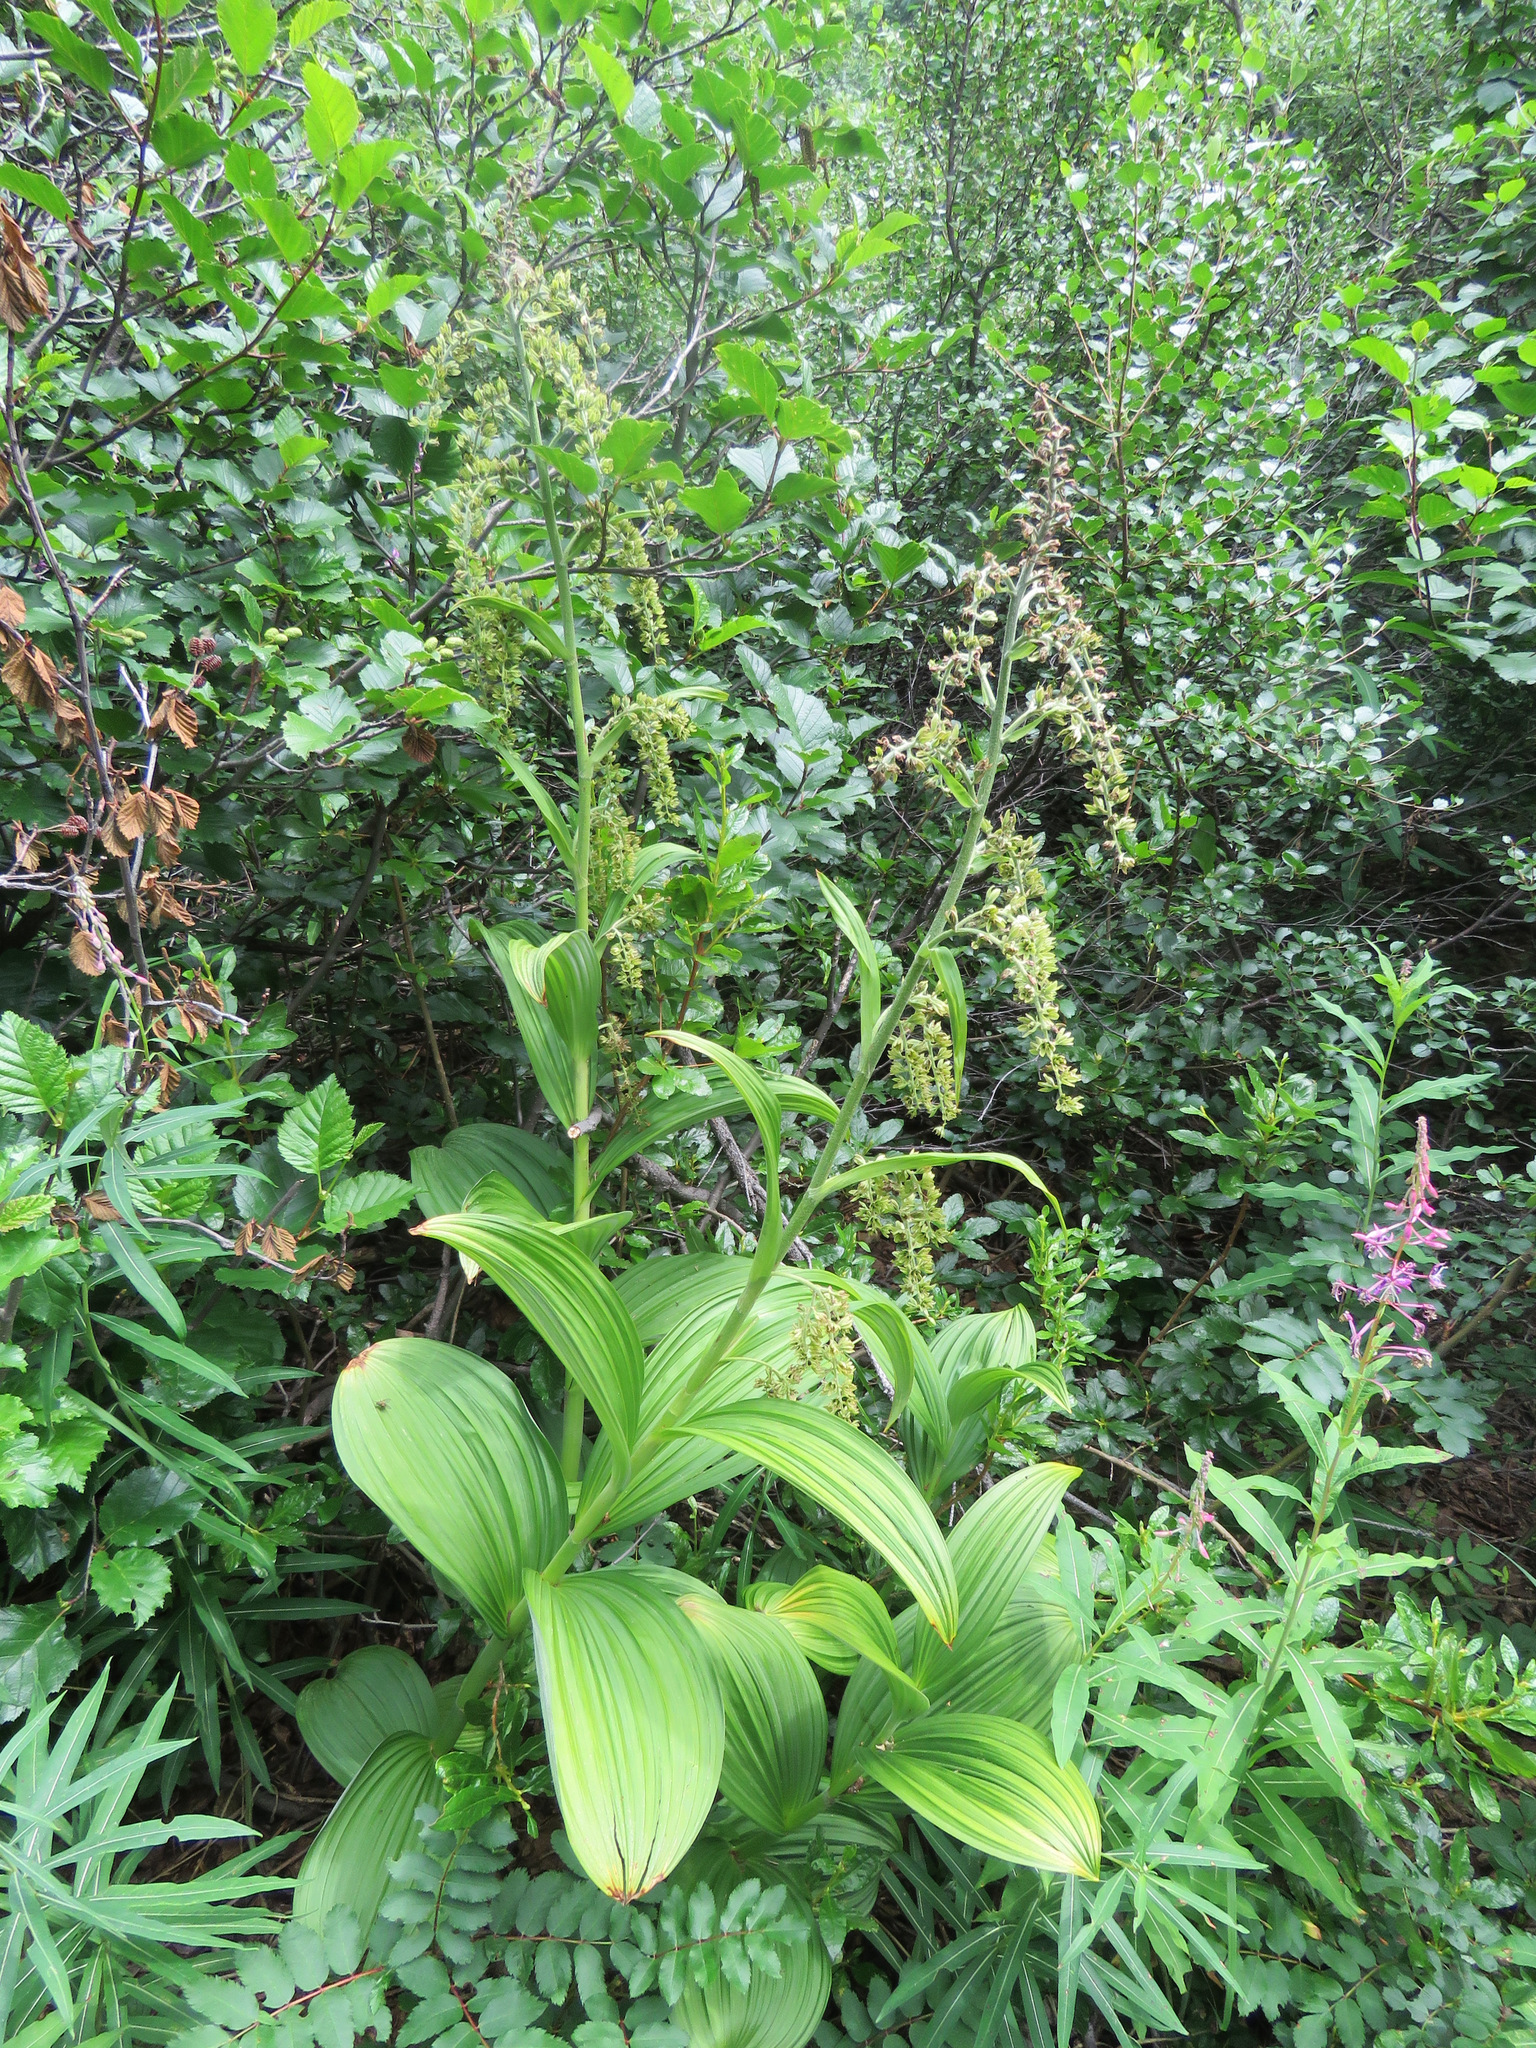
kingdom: Plantae
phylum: Tracheophyta
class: Liliopsida
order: Liliales
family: Melanthiaceae
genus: Veratrum
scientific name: Veratrum viride
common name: American false hellebore
